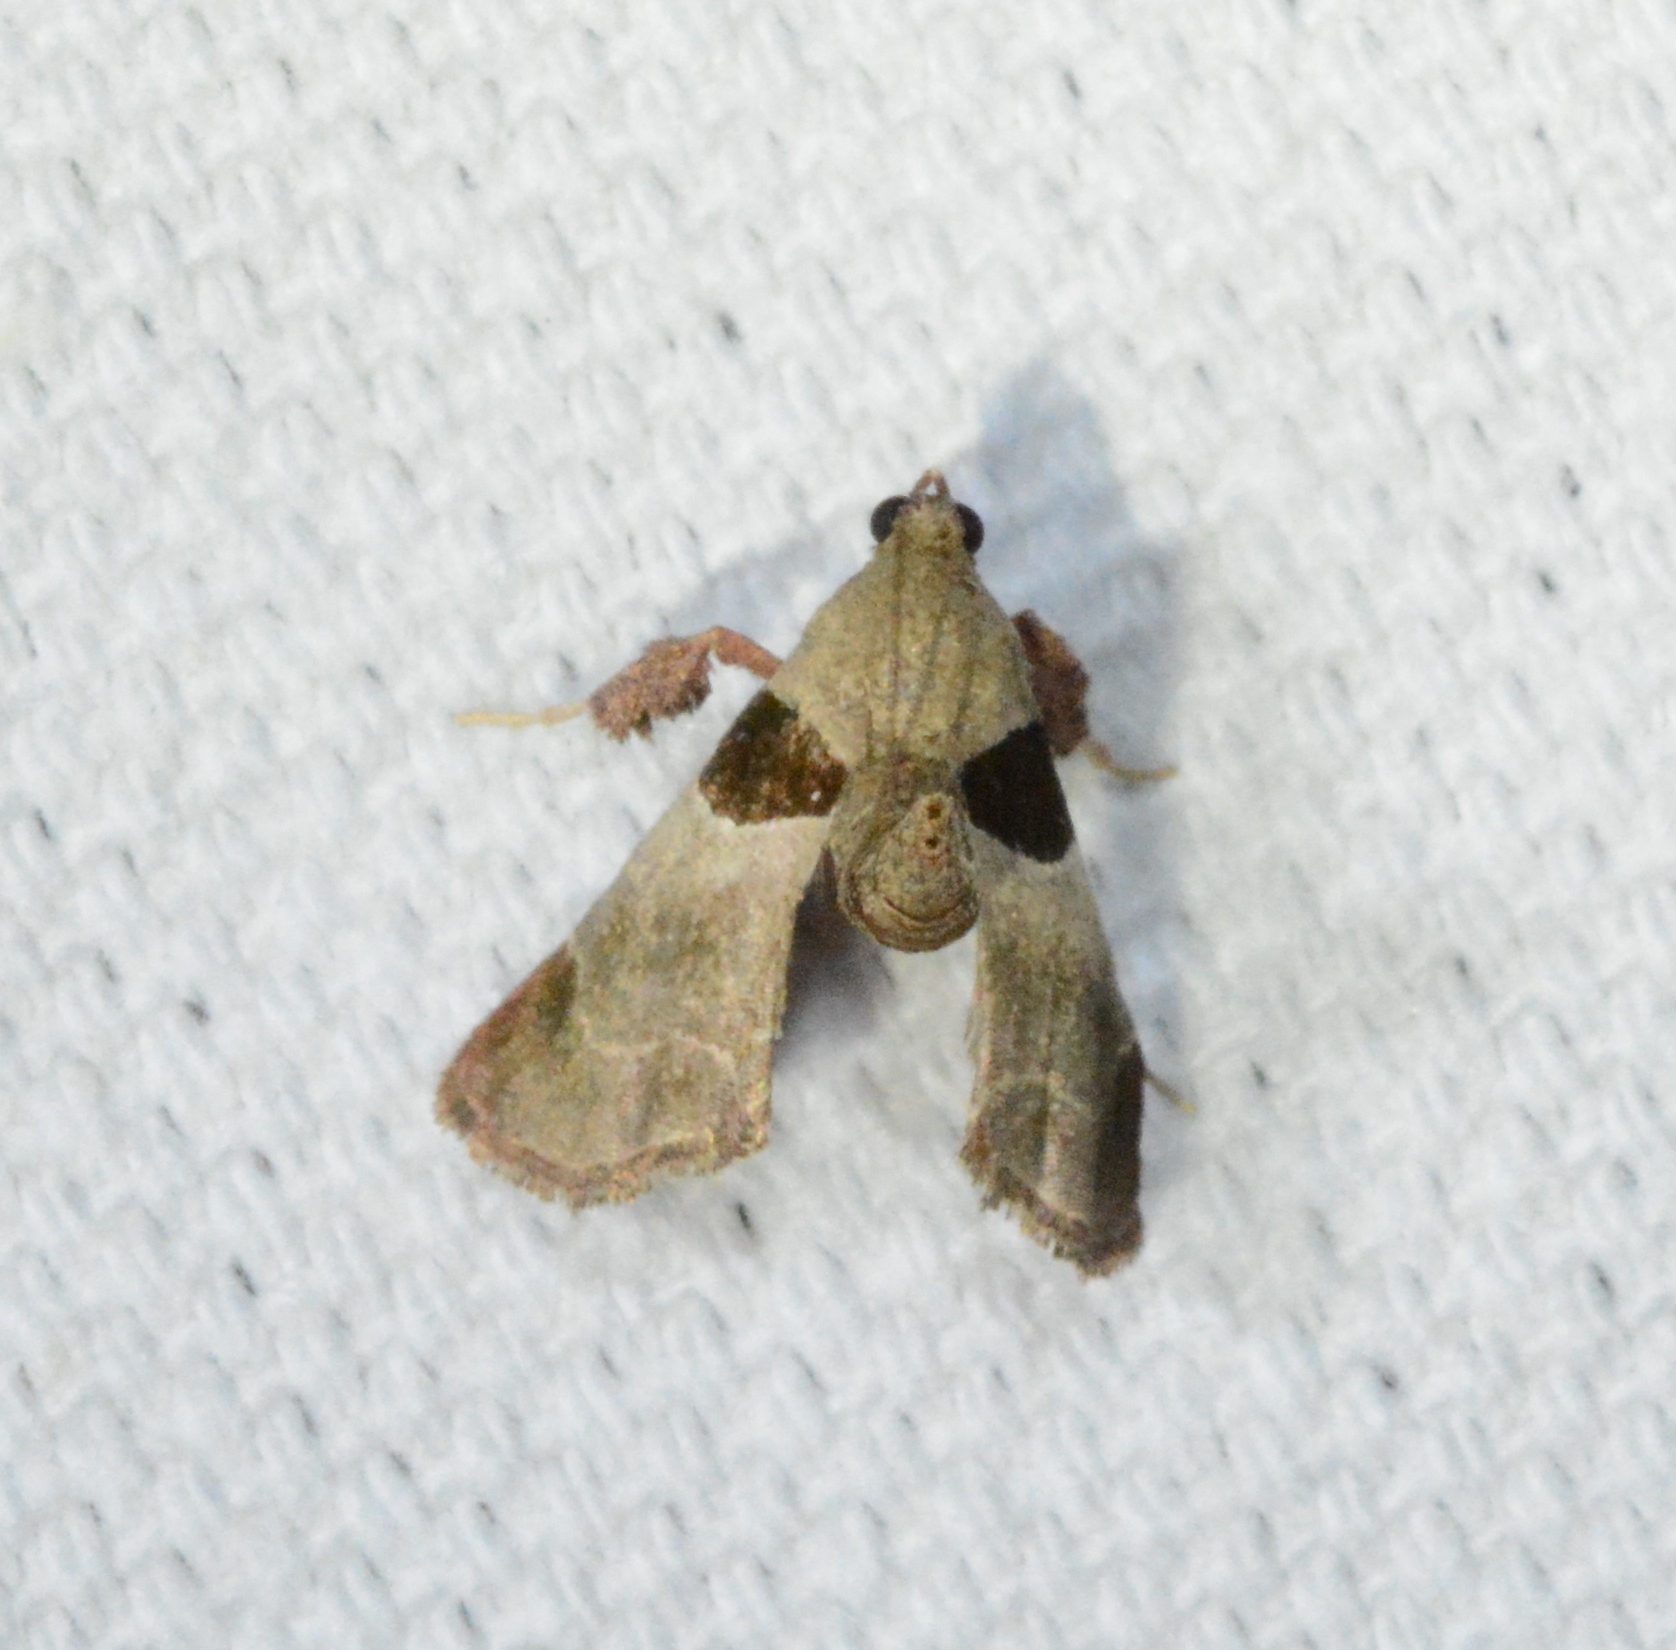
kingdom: Animalia
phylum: Arthropoda
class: Insecta
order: Lepidoptera
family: Pyralidae
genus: Tosale
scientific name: Tosale oviplagalis
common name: Dimorphic tosale moth
